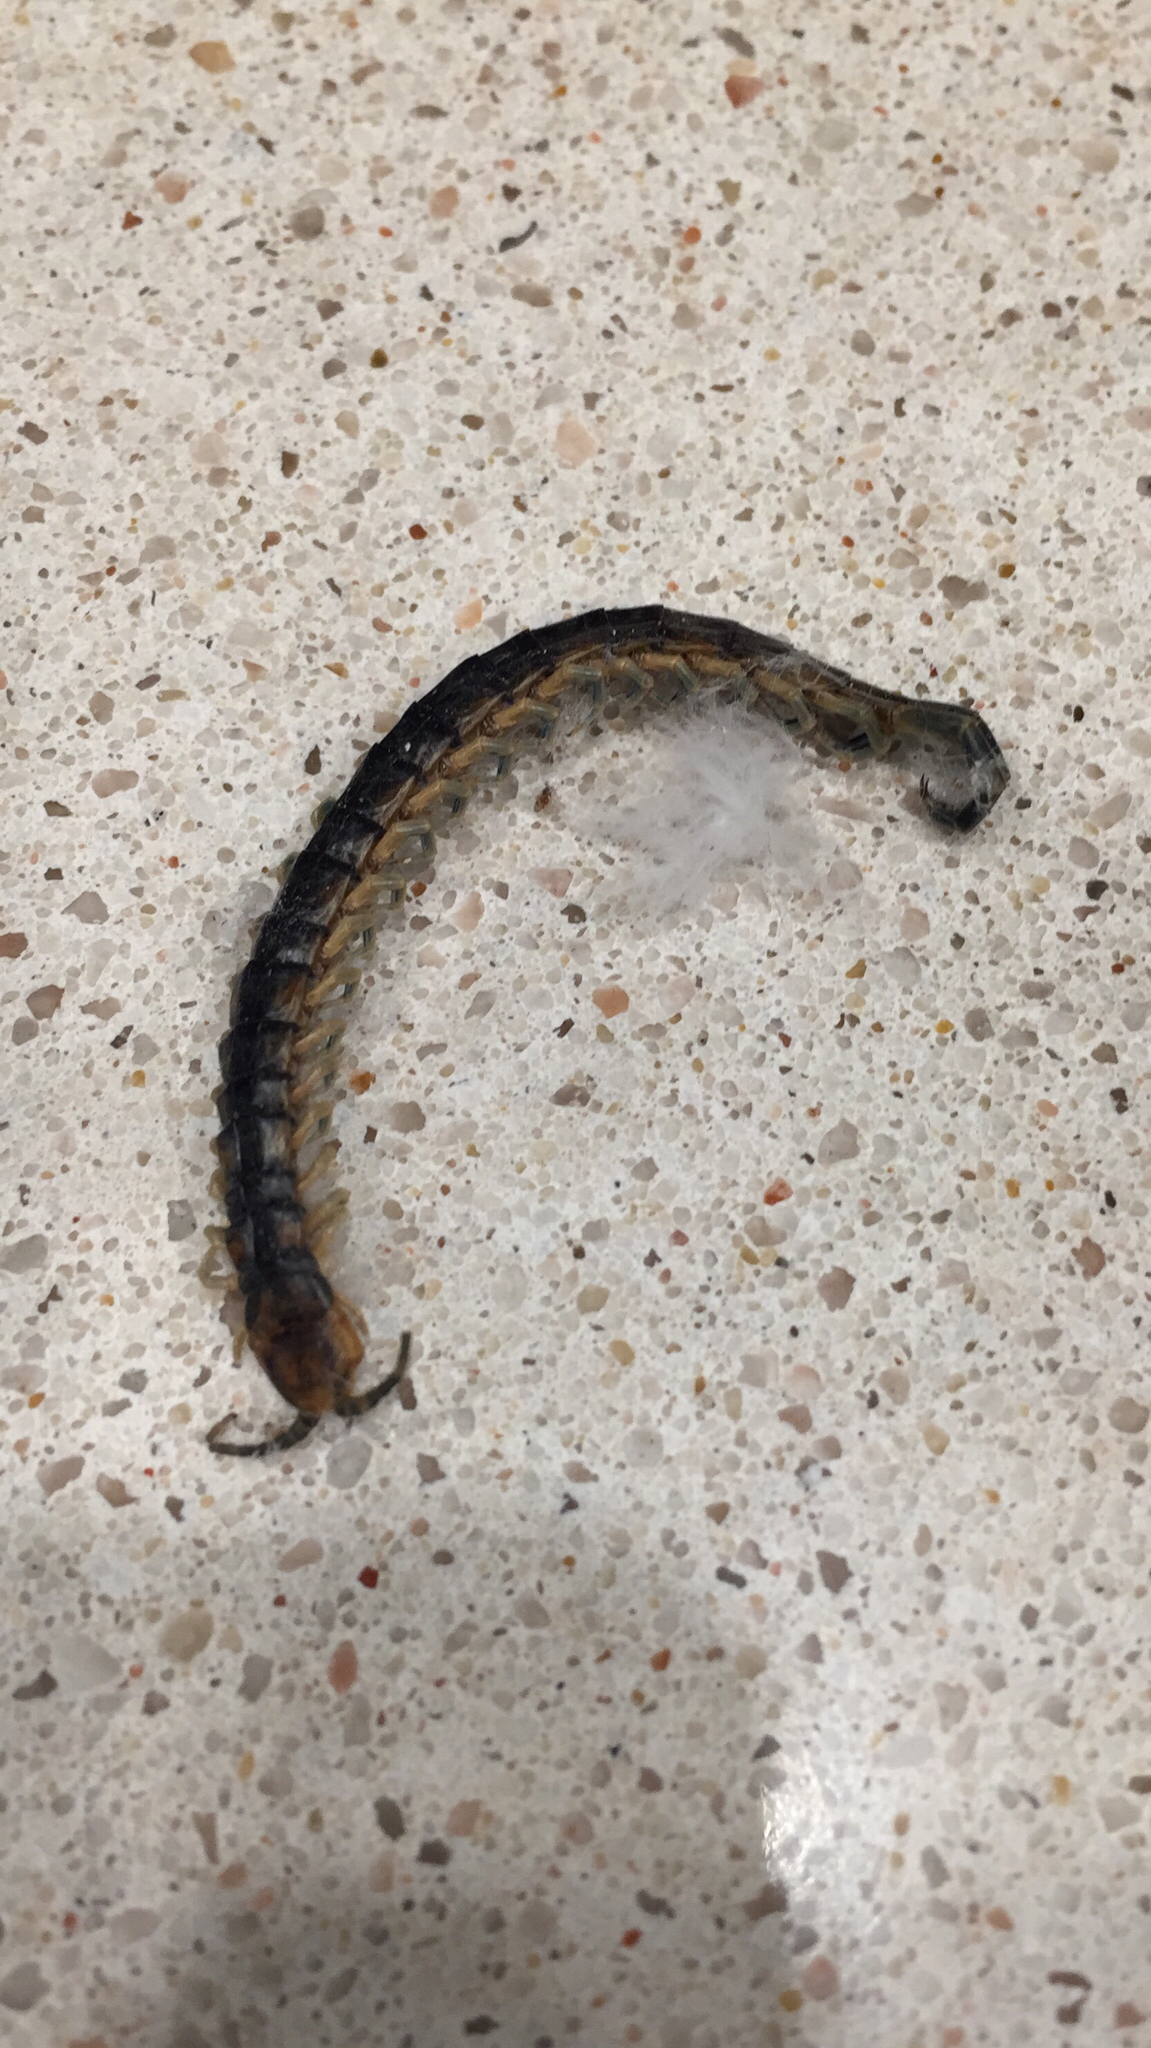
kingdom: Animalia
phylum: Arthropoda
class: Chilopoda
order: Scolopendromorpha
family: Scolopendridae
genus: Scolopendra
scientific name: Scolopendra polymorpha
